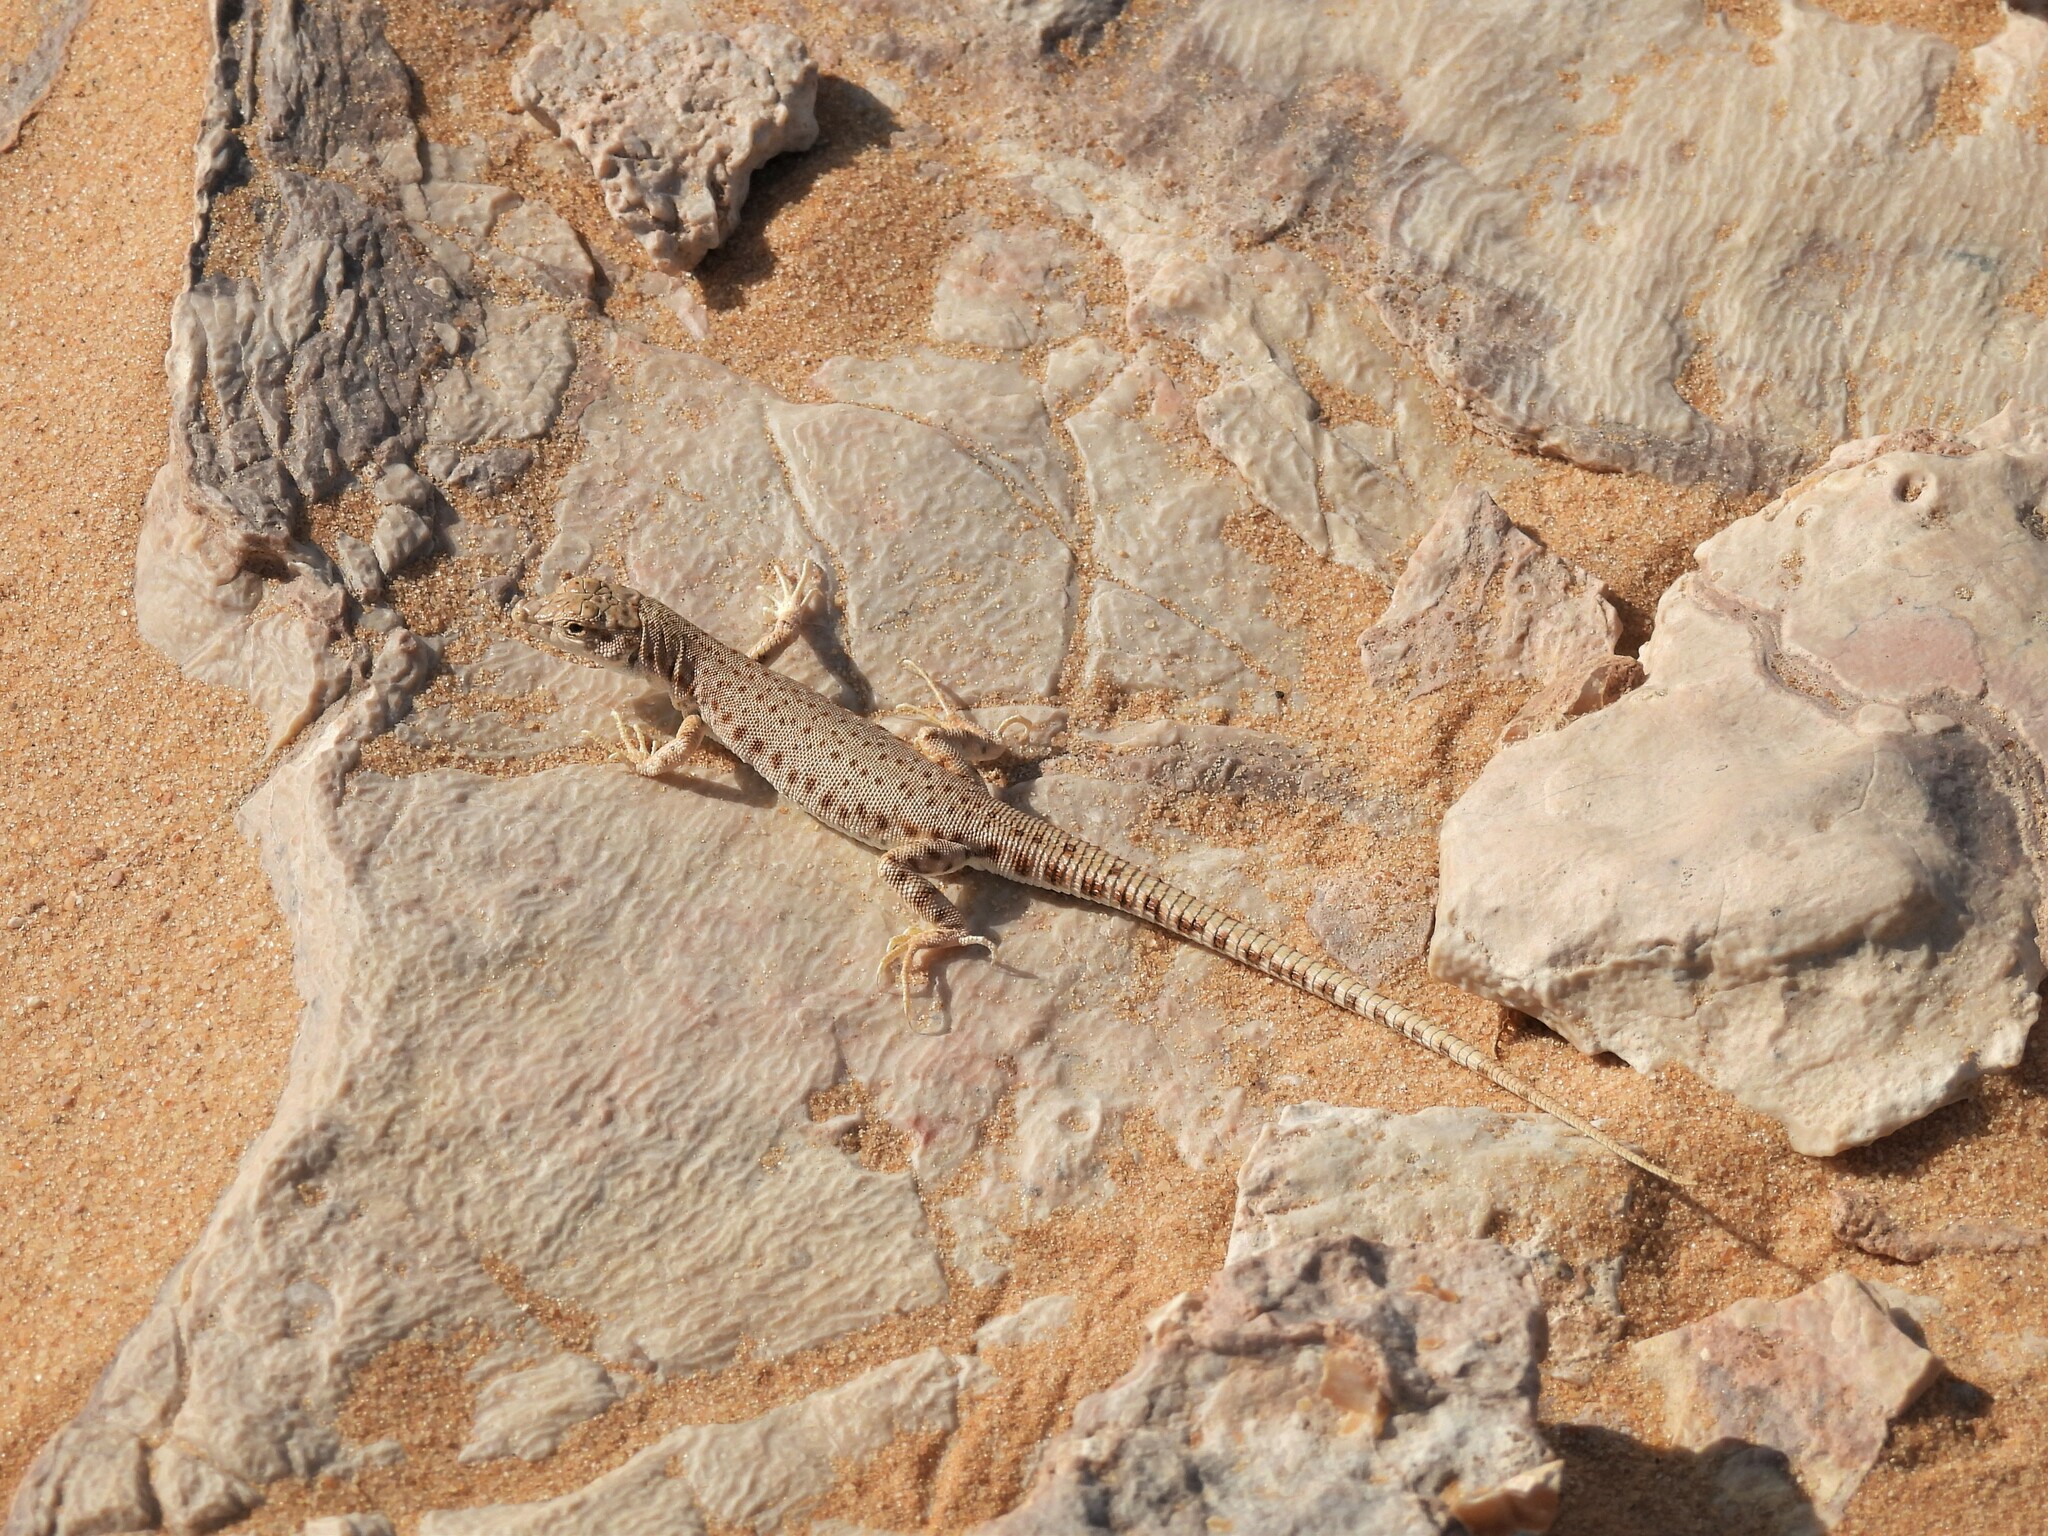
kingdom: Animalia
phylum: Chordata
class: Squamata
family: Lacertidae
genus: Mesalina
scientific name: Mesalina brevirostris
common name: Blanford's short-nosed desert lizard
